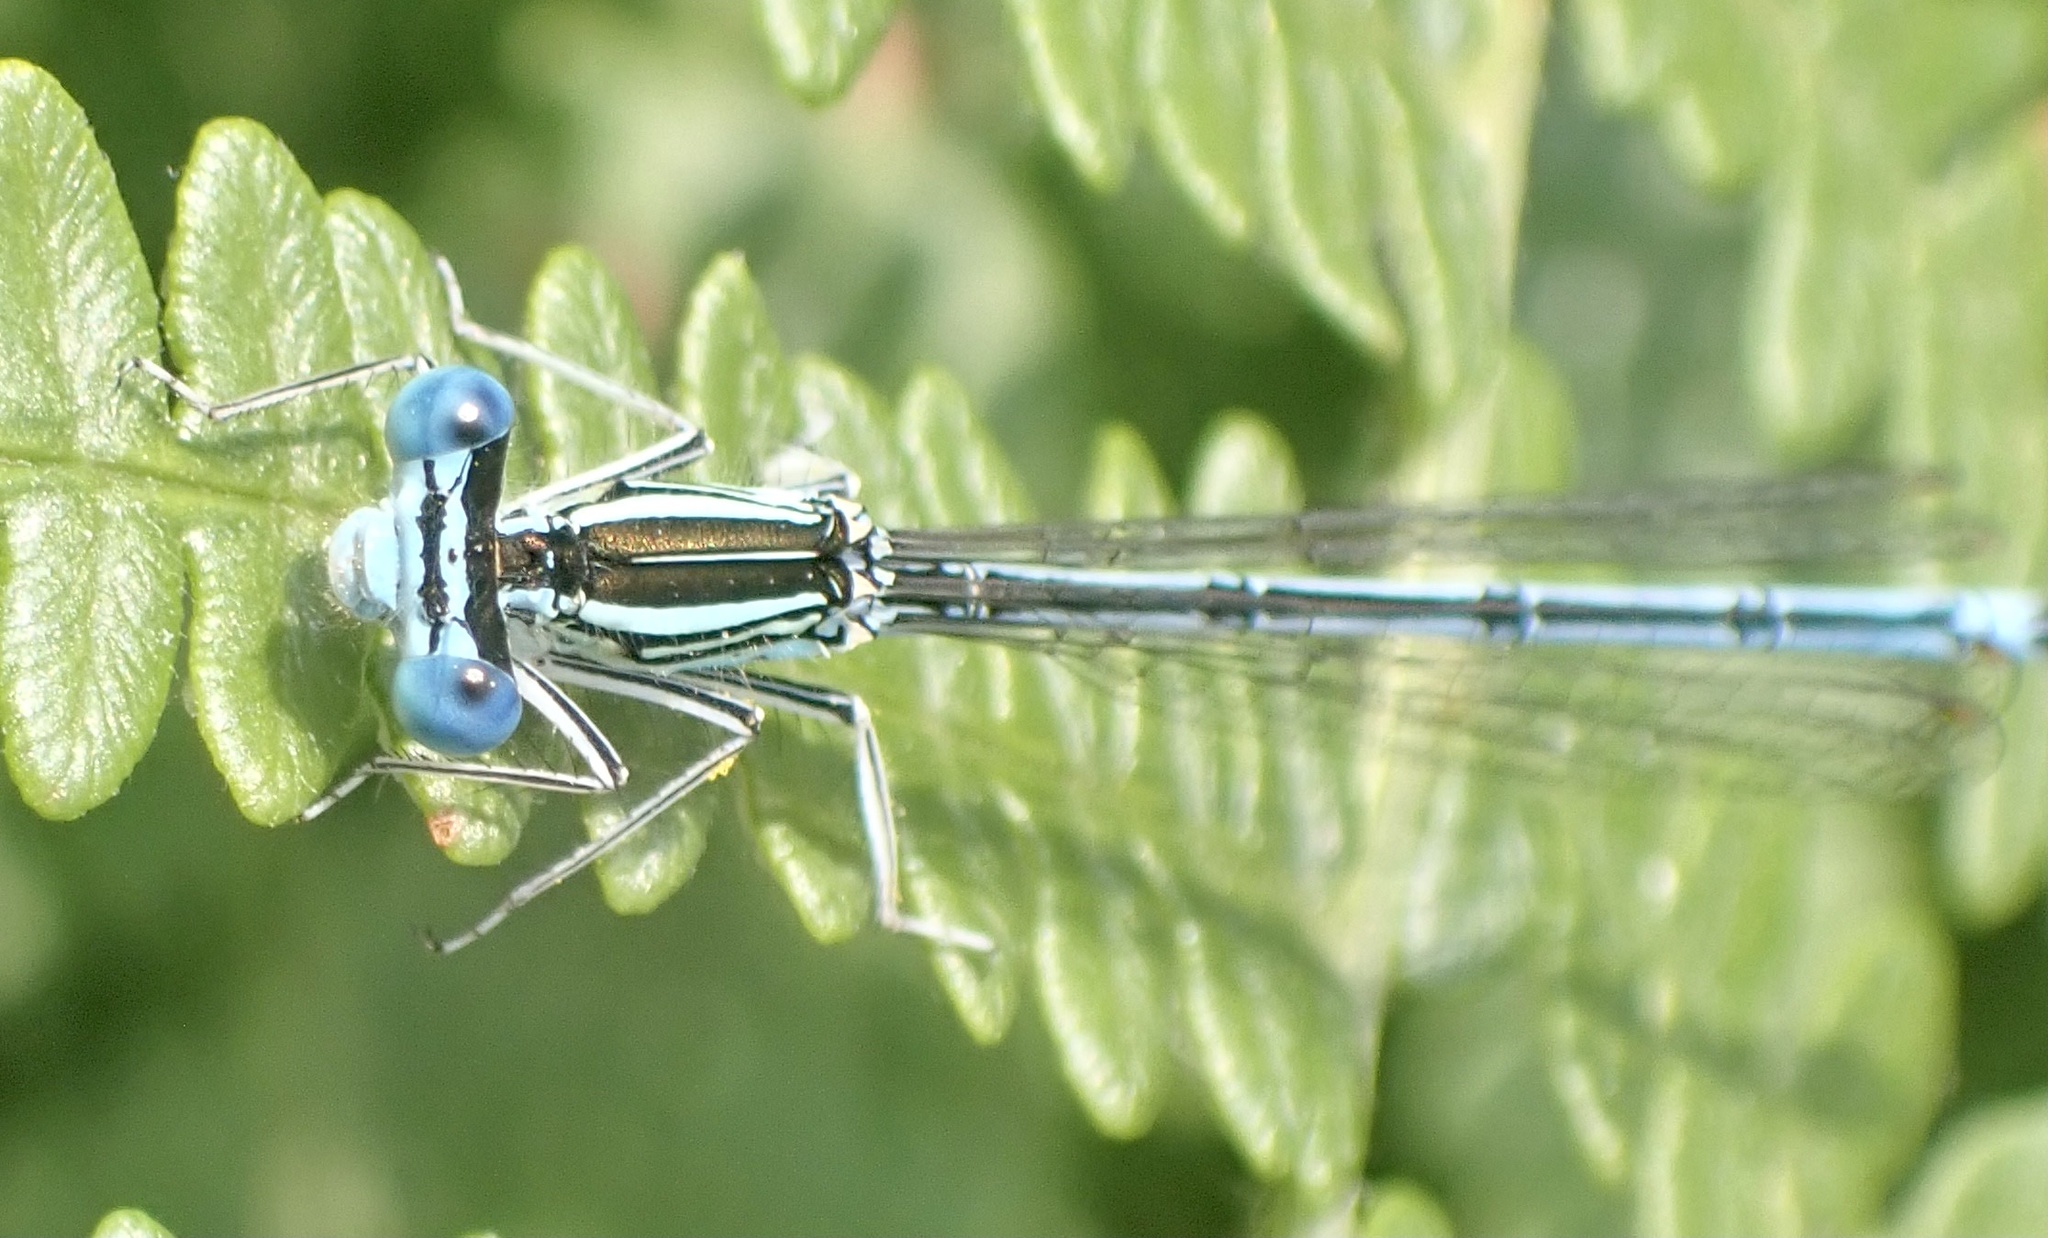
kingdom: Animalia
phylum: Arthropoda
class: Insecta
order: Odonata
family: Platycnemididae
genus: Platycnemis
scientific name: Platycnemis pennipes
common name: White-legged damselfly
